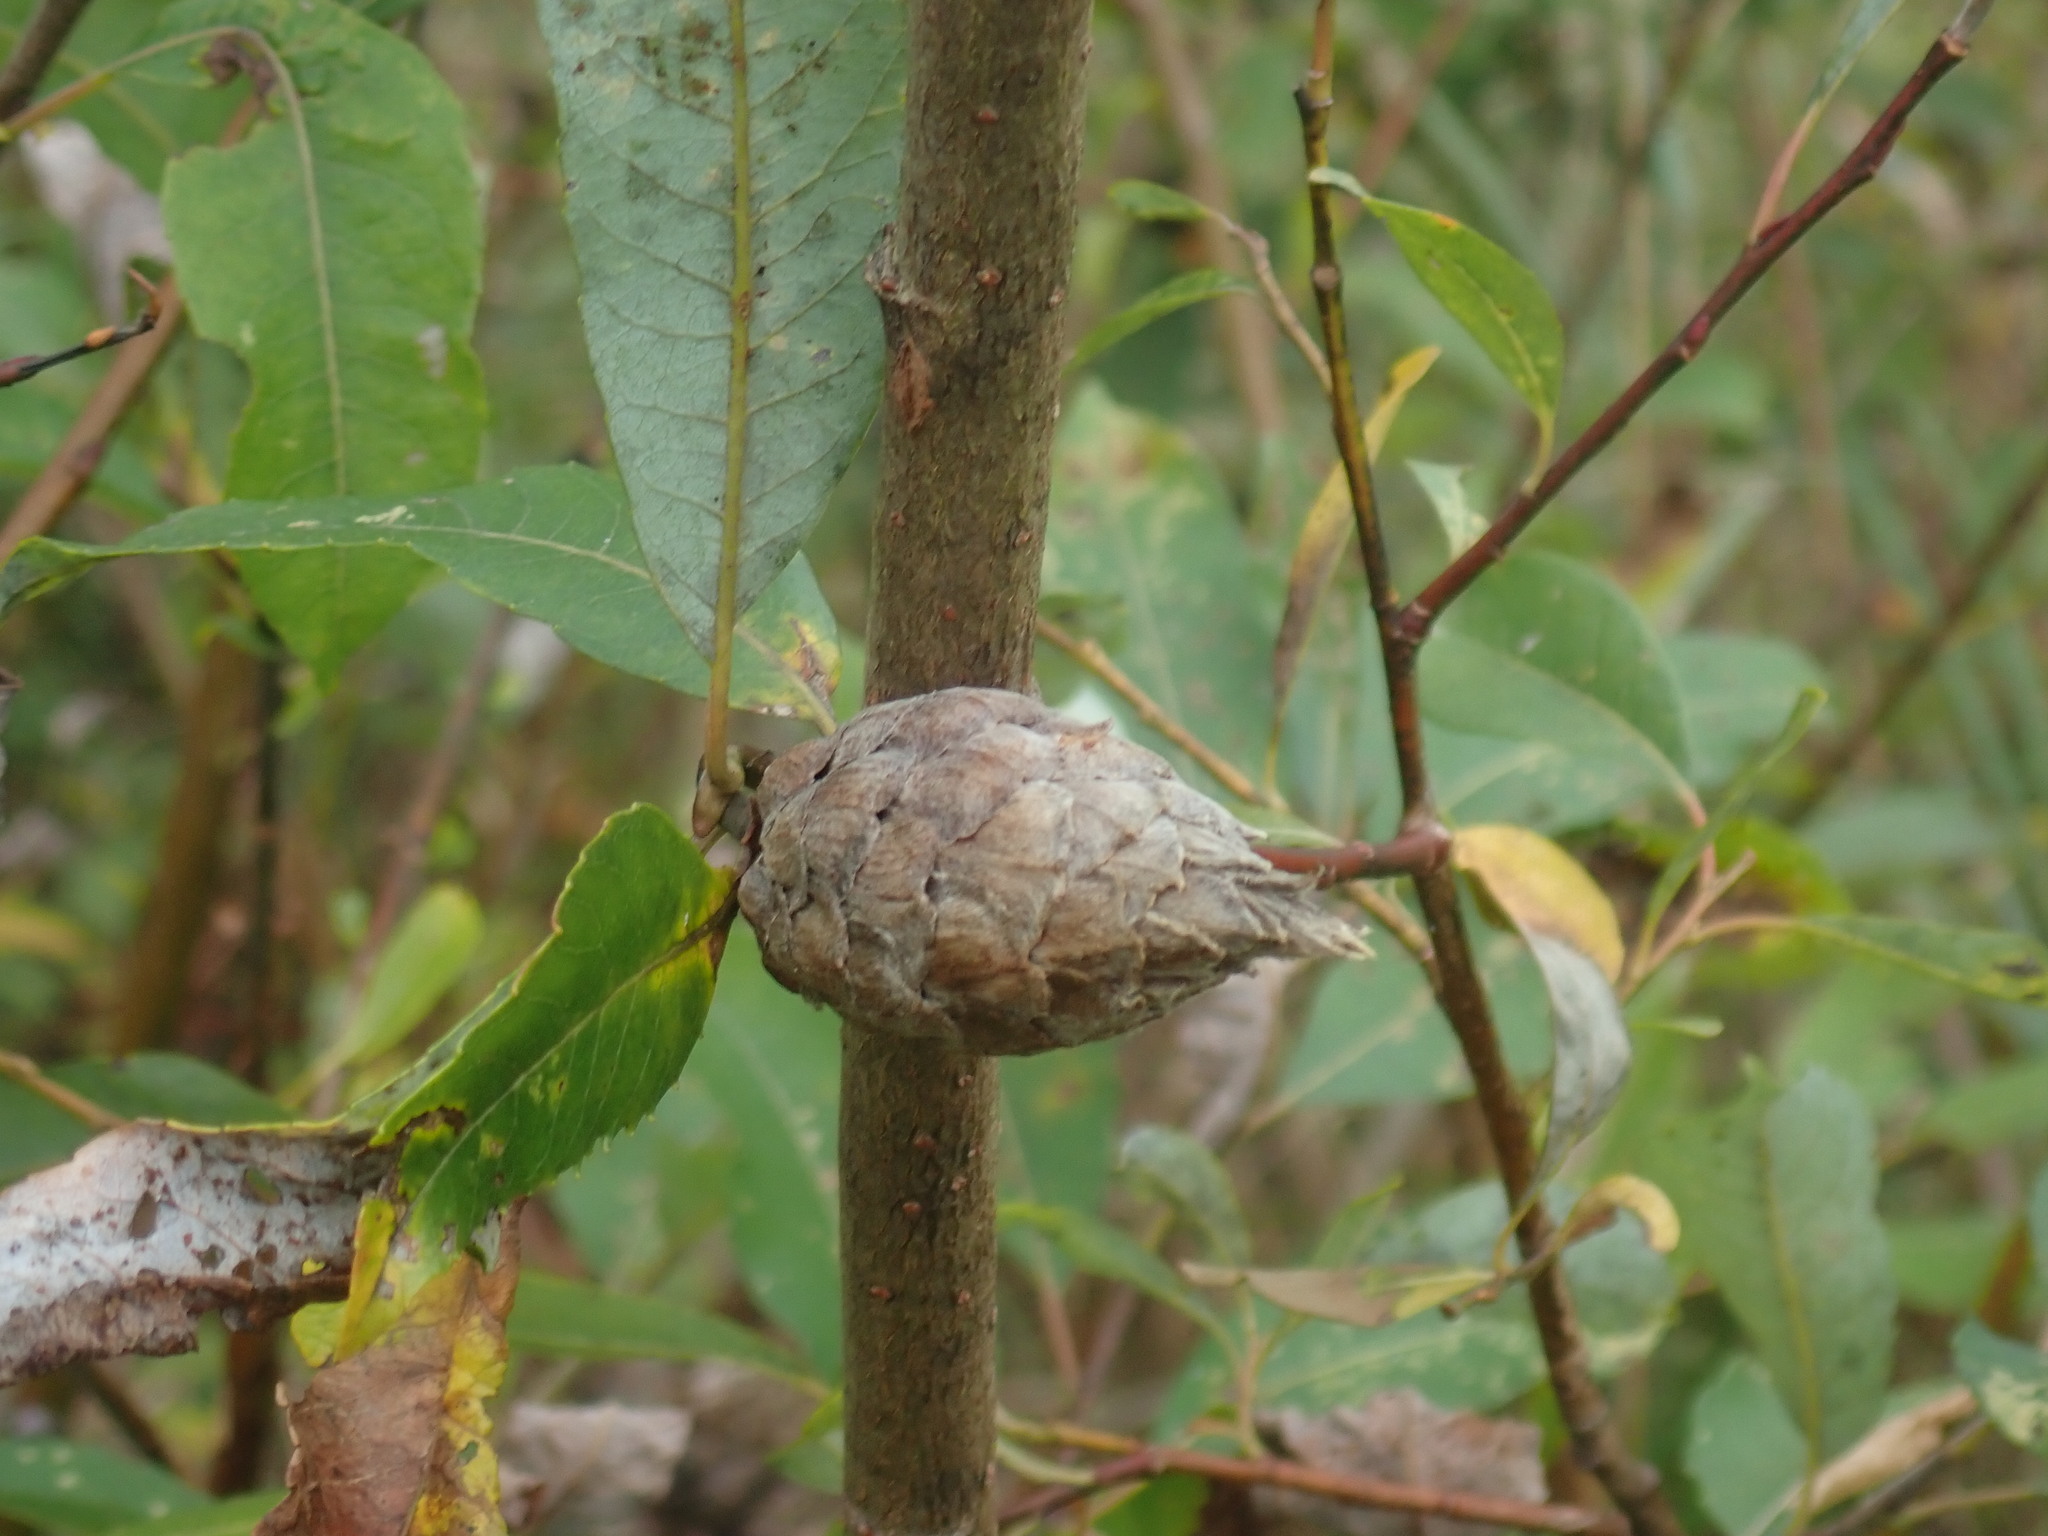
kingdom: Animalia
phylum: Arthropoda
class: Insecta
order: Diptera
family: Cecidomyiidae
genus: Rabdophaga
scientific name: Rabdophaga strobiloides
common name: Willow pinecone gall midge
